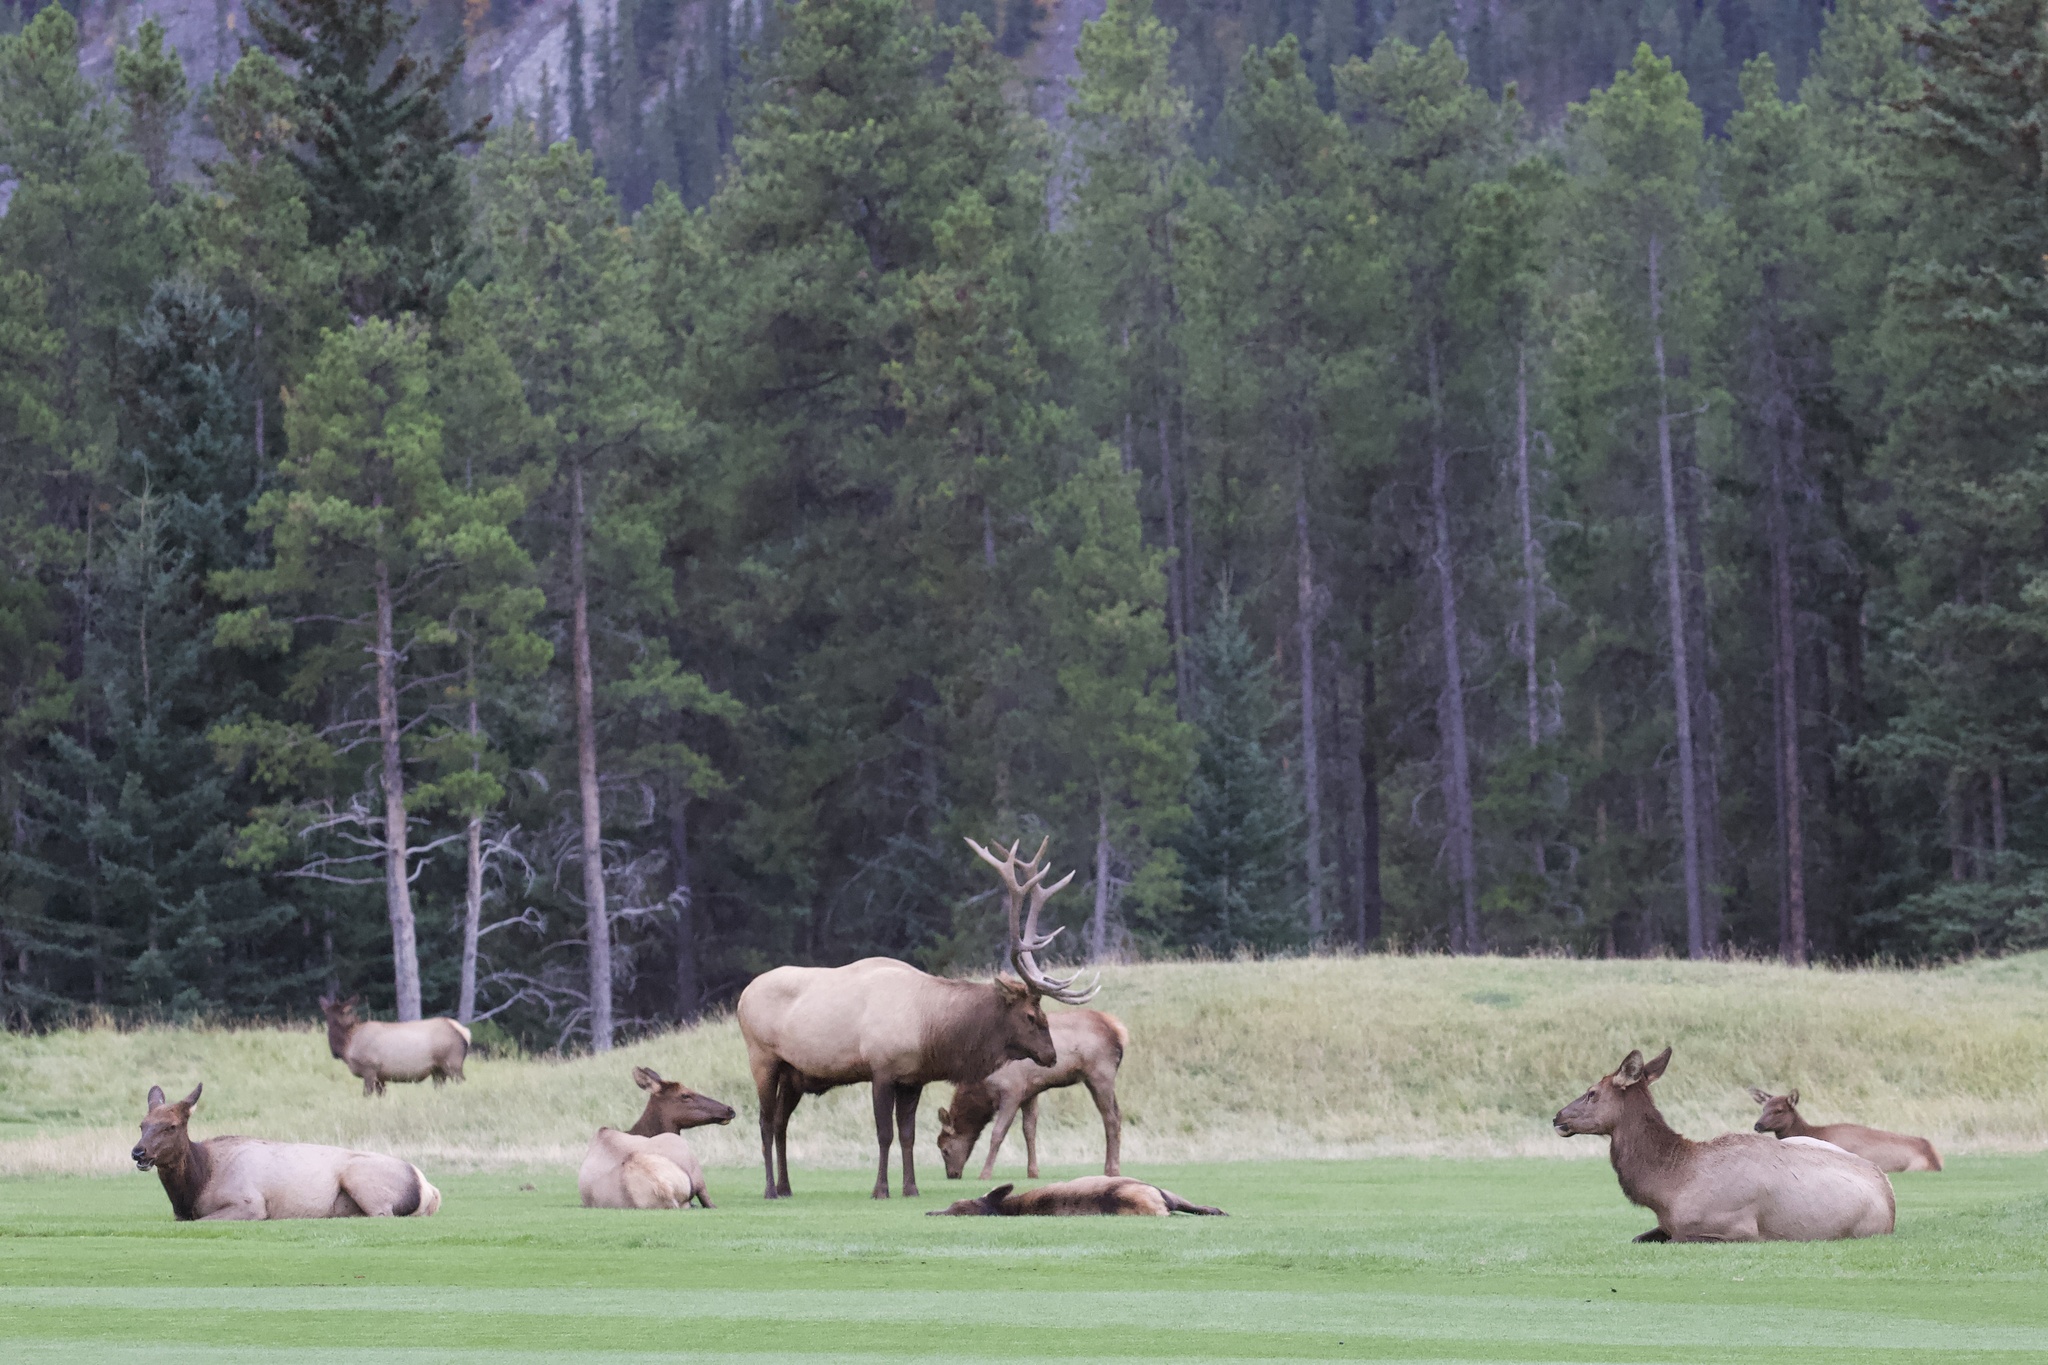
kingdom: Animalia
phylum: Chordata
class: Mammalia
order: Artiodactyla
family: Cervidae
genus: Cervus
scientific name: Cervus elaphus
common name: Red deer
